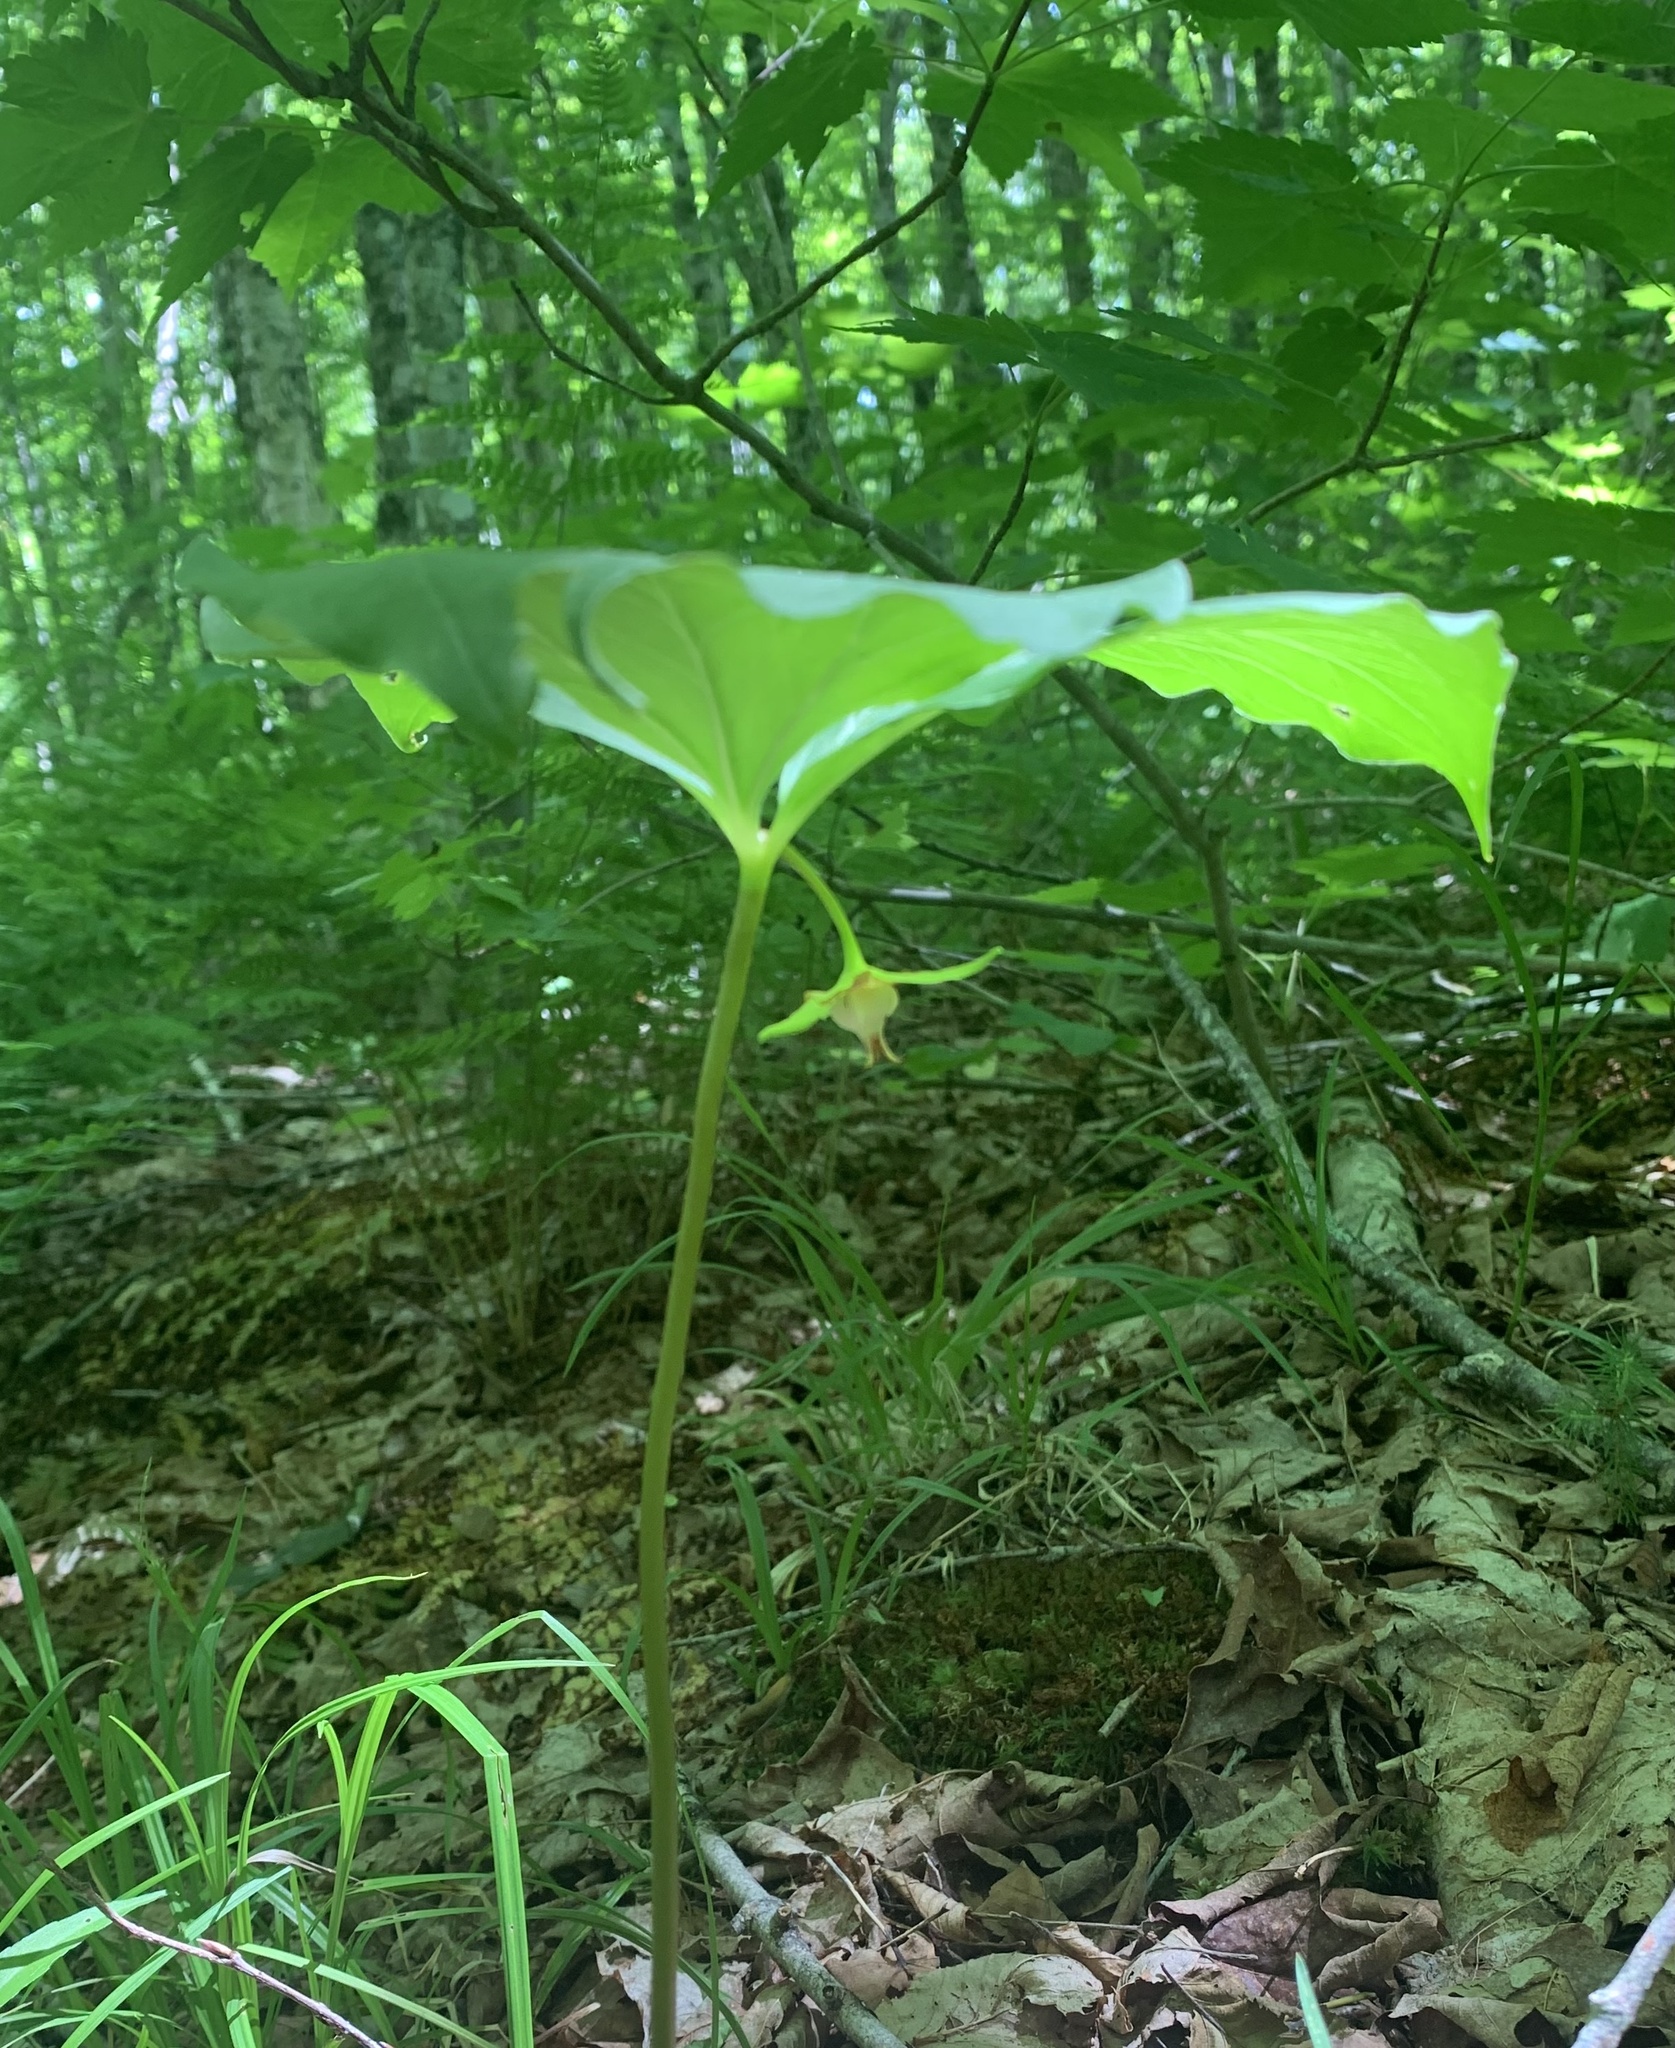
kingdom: Plantae
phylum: Tracheophyta
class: Liliopsida
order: Liliales
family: Melanthiaceae
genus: Trillium
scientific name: Trillium cernuum
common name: Nodding trillium
